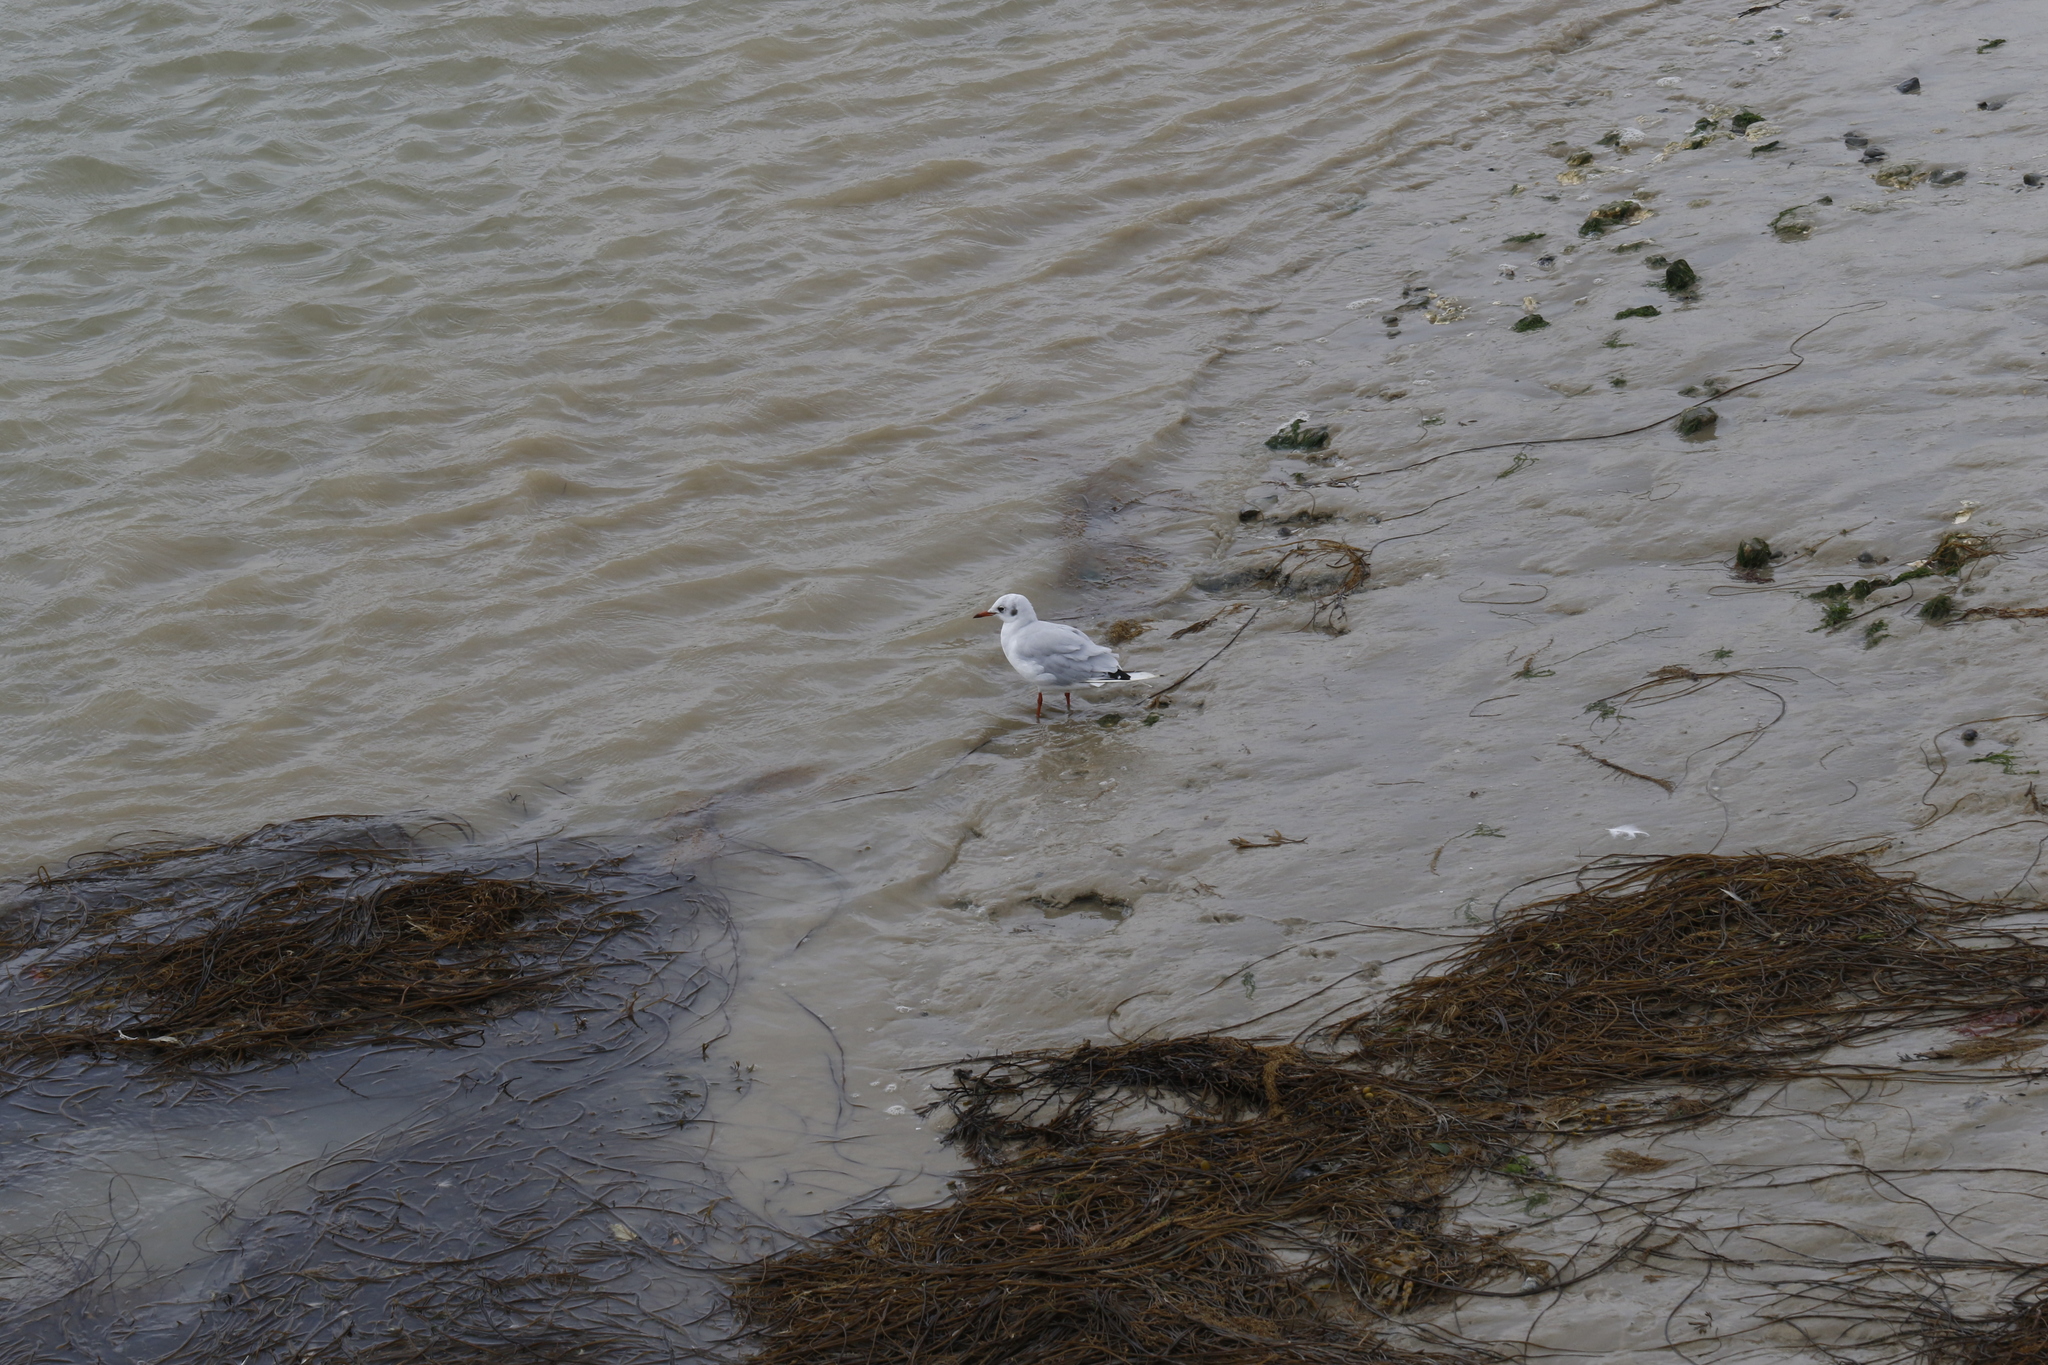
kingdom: Animalia
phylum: Chordata
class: Aves
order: Charadriiformes
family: Laridae
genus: Chroicocephalus
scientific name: Chroicocephalus ridibundus
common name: Black-headed gull
